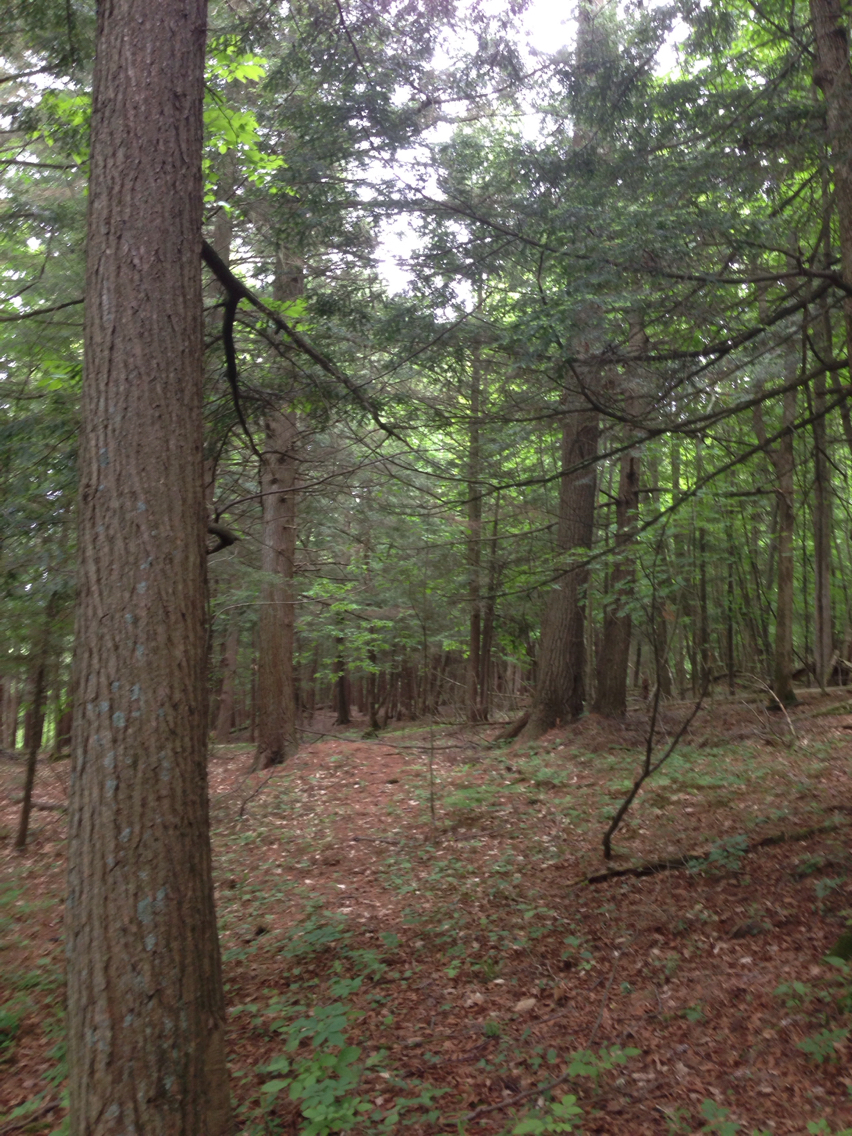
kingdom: Plantae
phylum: Tracheophyta
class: Pinopsida
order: Pinales
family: Pinaceae
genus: Tsuga
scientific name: Tsuga canadensis
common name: Eastern hemlock
